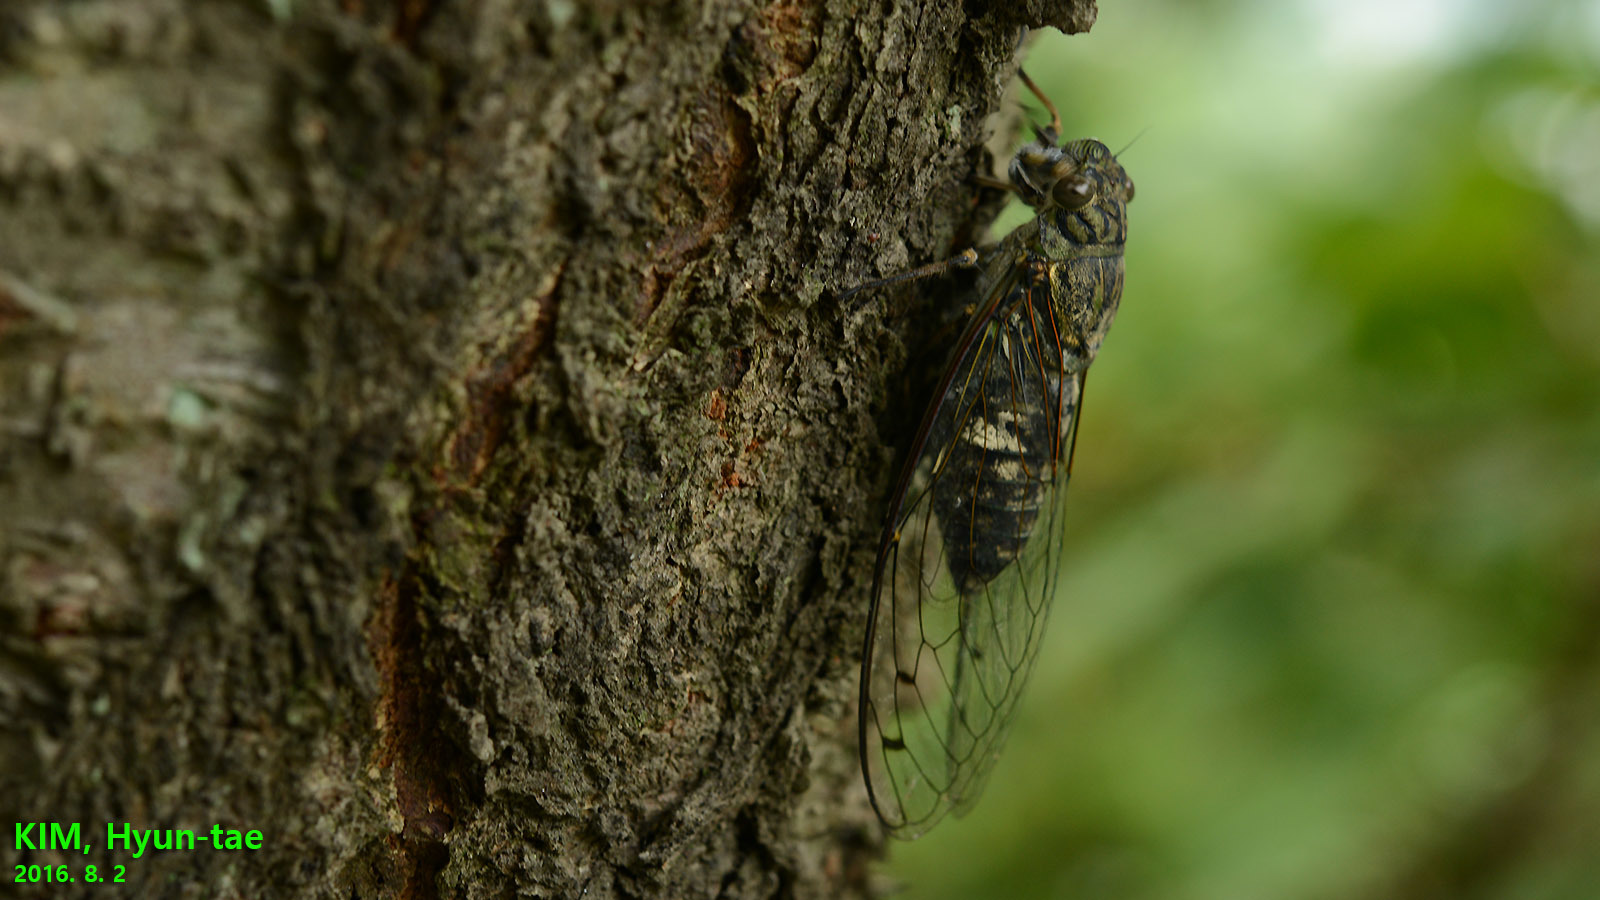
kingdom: Animalia
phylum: Arthropoda
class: Insecta
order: Hemiptera
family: Cicadidae
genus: Meimuna
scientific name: Meimuna opalifera
